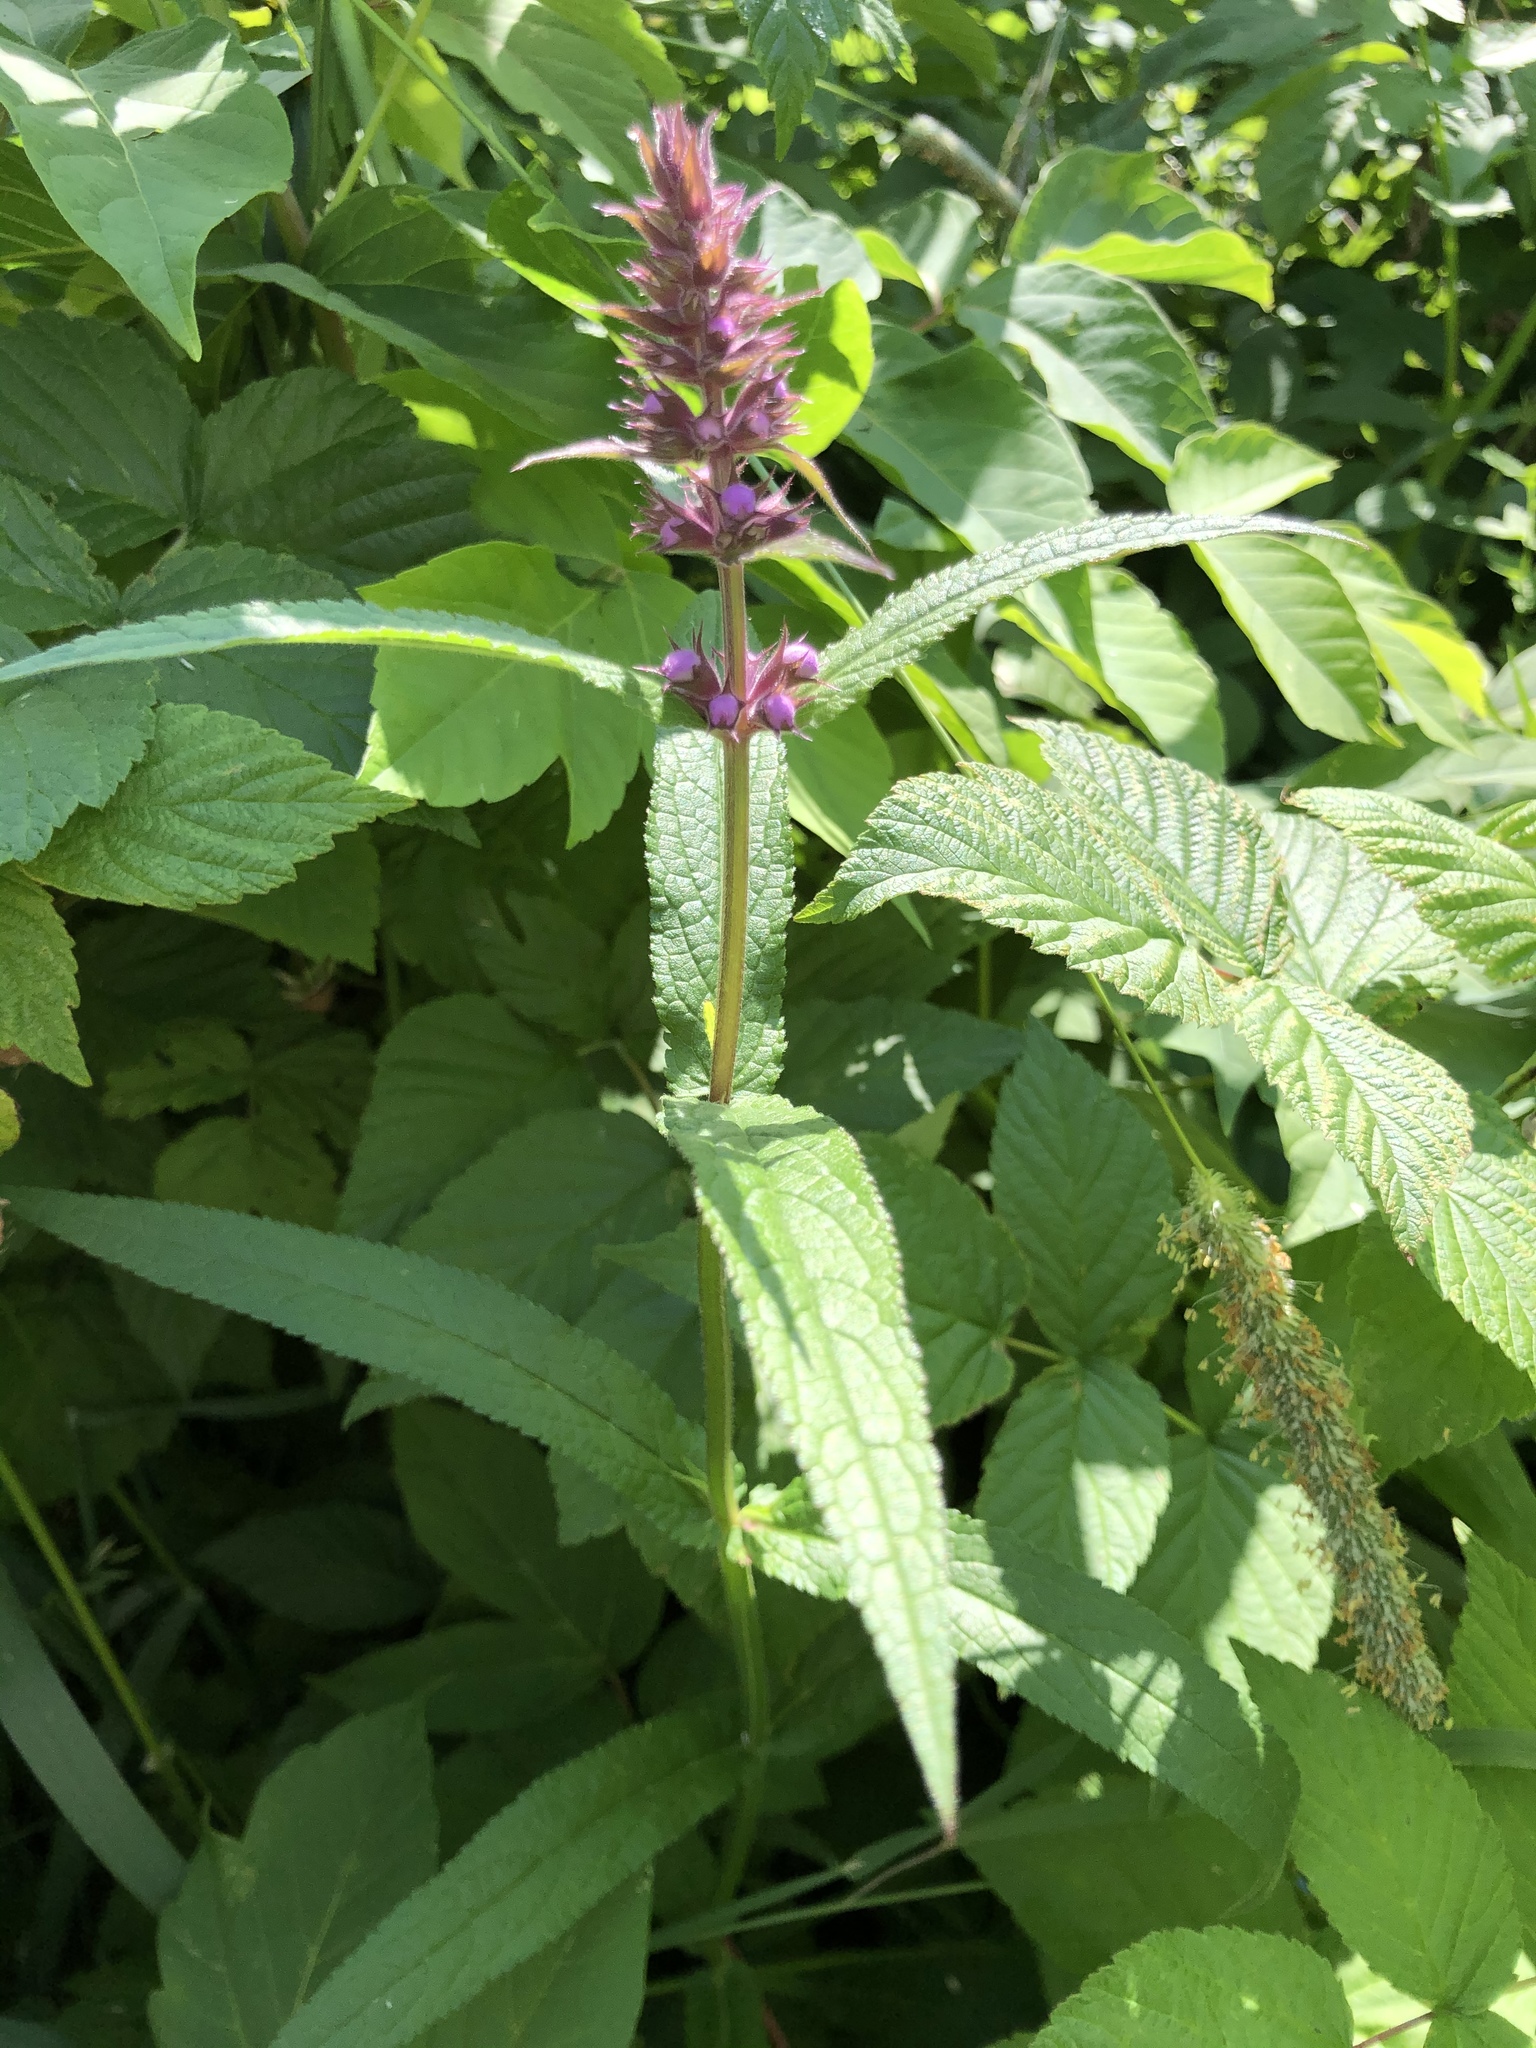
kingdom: Plantae
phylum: Tracheophyta
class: Magnoliopsida
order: Lamiales
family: Lamiaceae
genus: Stachys
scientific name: Stachys palustris
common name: Marsh woundwort
